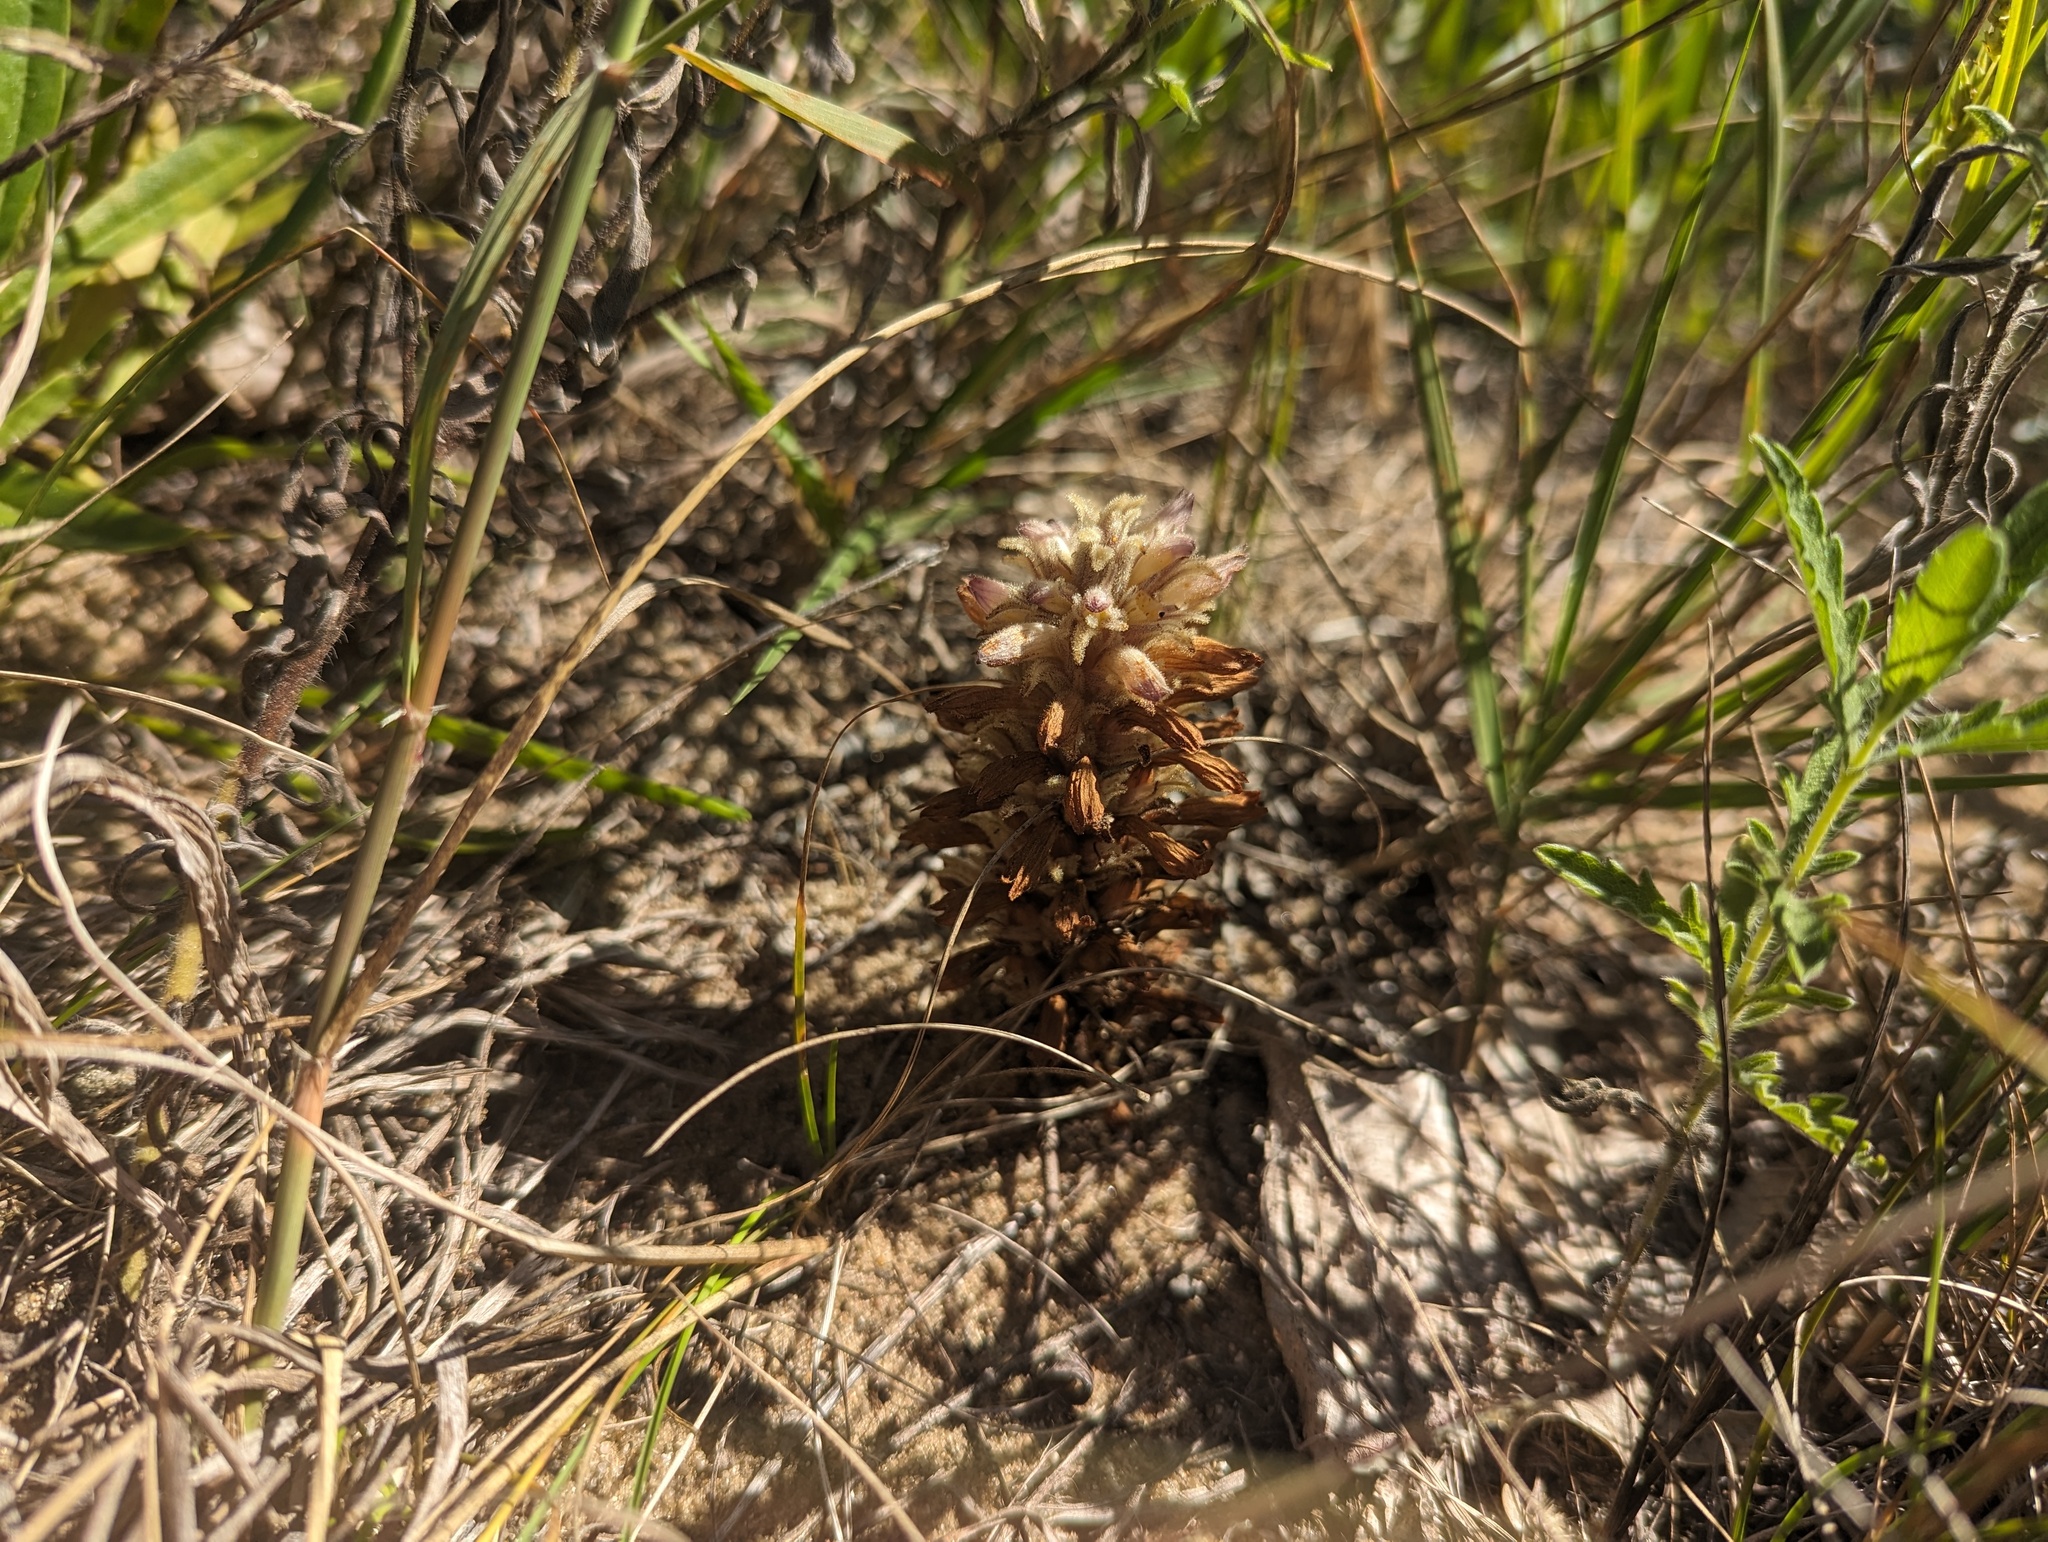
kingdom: Plantae
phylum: Tracheophyta
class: Magnoliopsida
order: Lamiales
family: Orobanchaceae
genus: Aphyllon
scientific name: Aphyllon ludovicianum
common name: Louisiana broomrape
